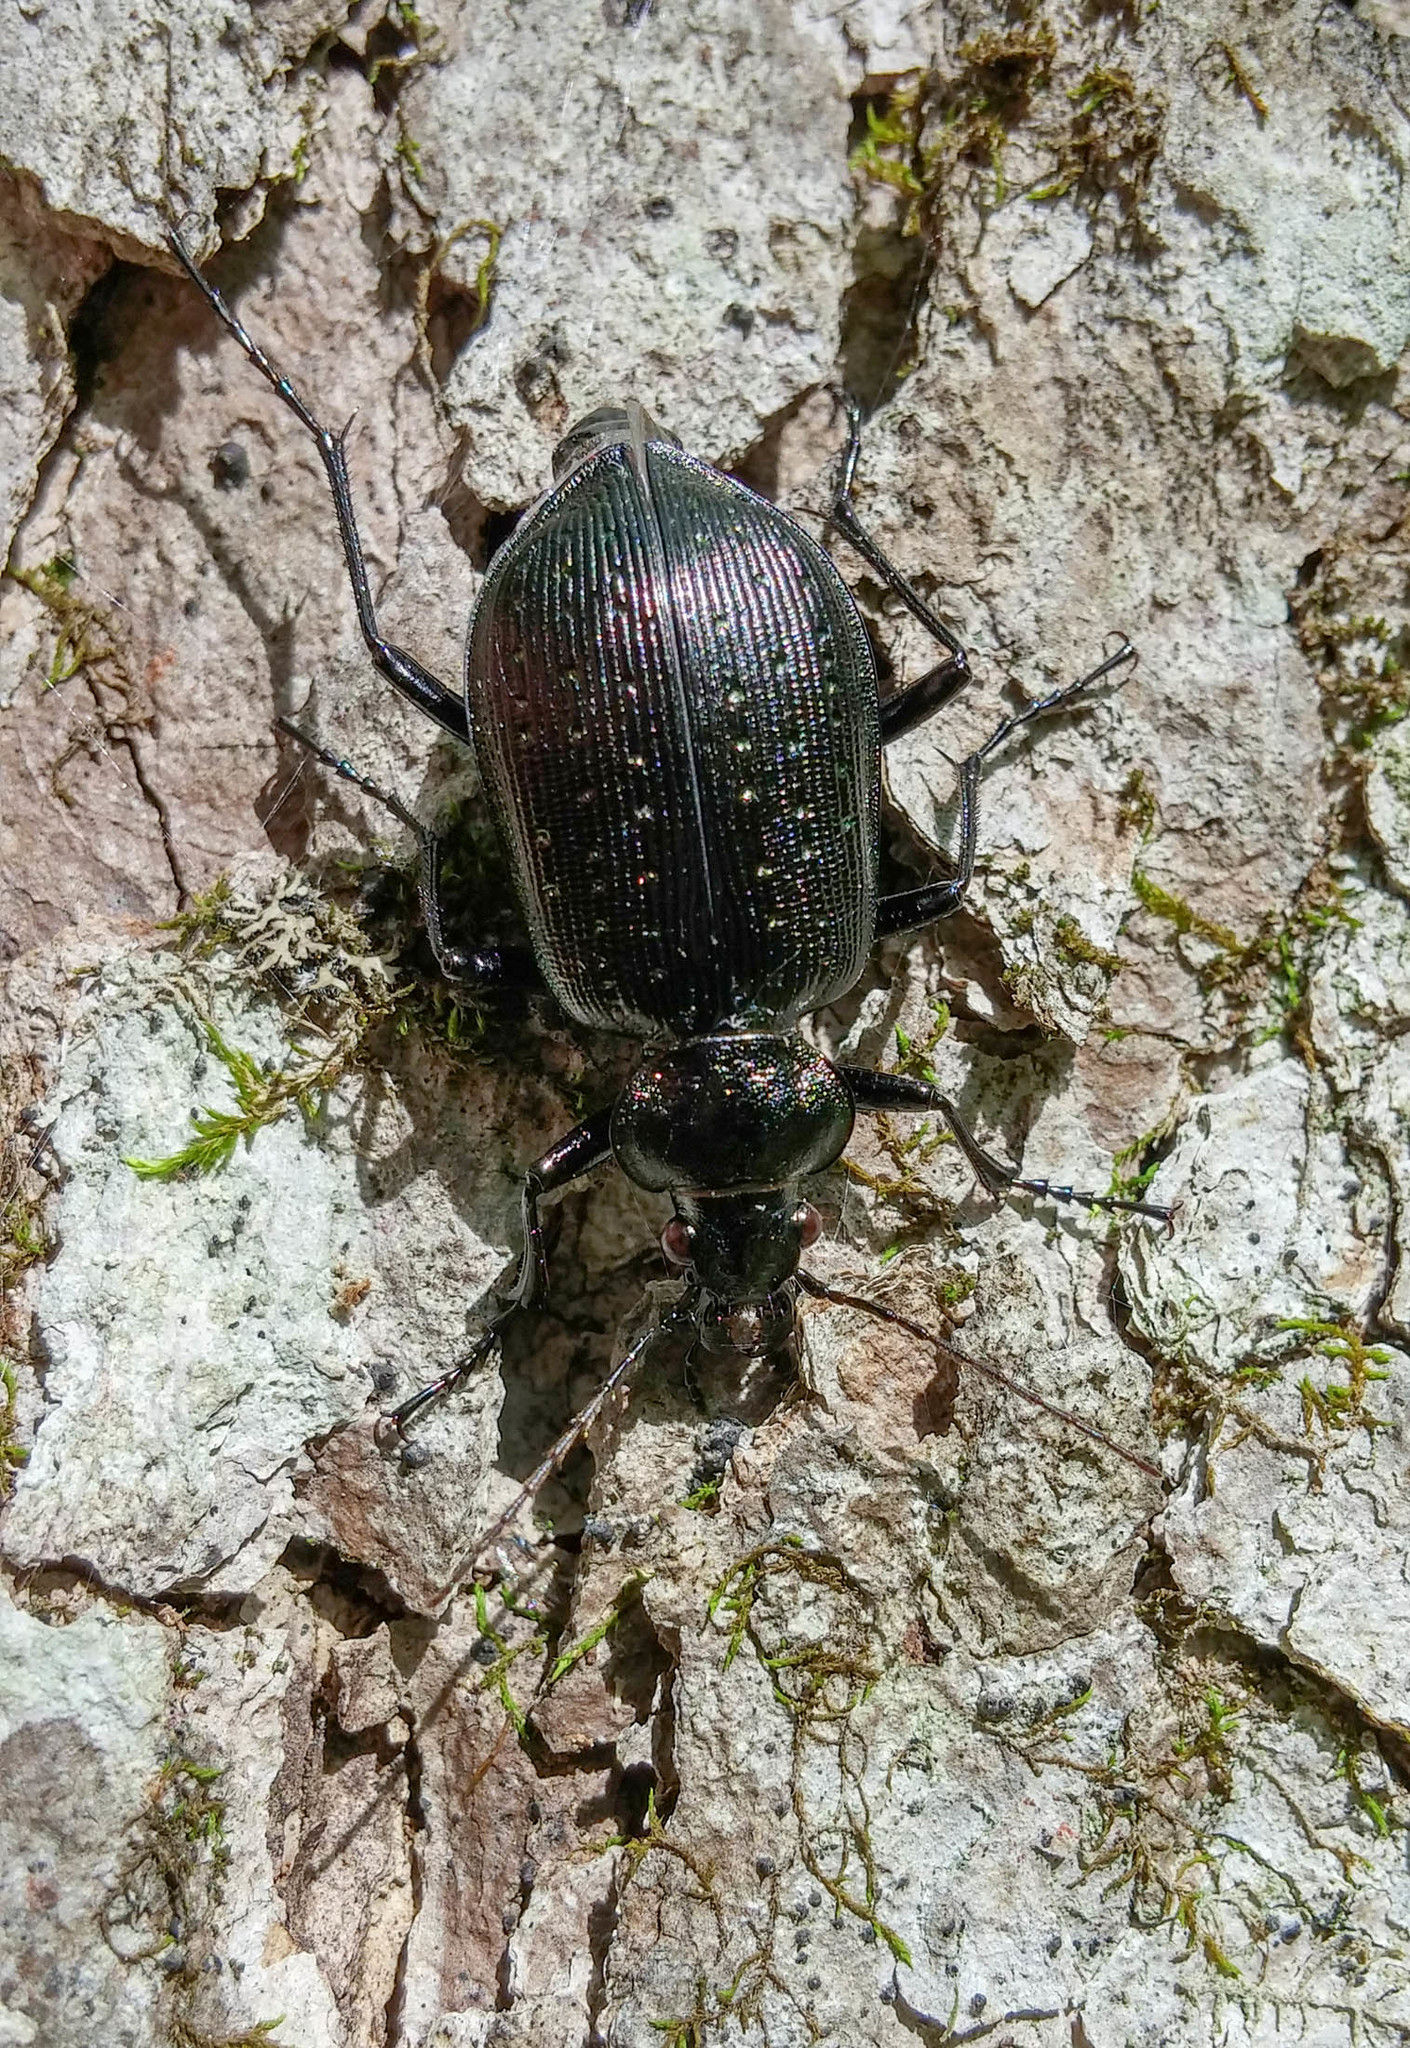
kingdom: Animalia
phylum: Arthropoda
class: Insecta
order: Coleoptera
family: Carabidae
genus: Calosoma
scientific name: Calosoma frigidum
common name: Cold-country caterpillar hunter
